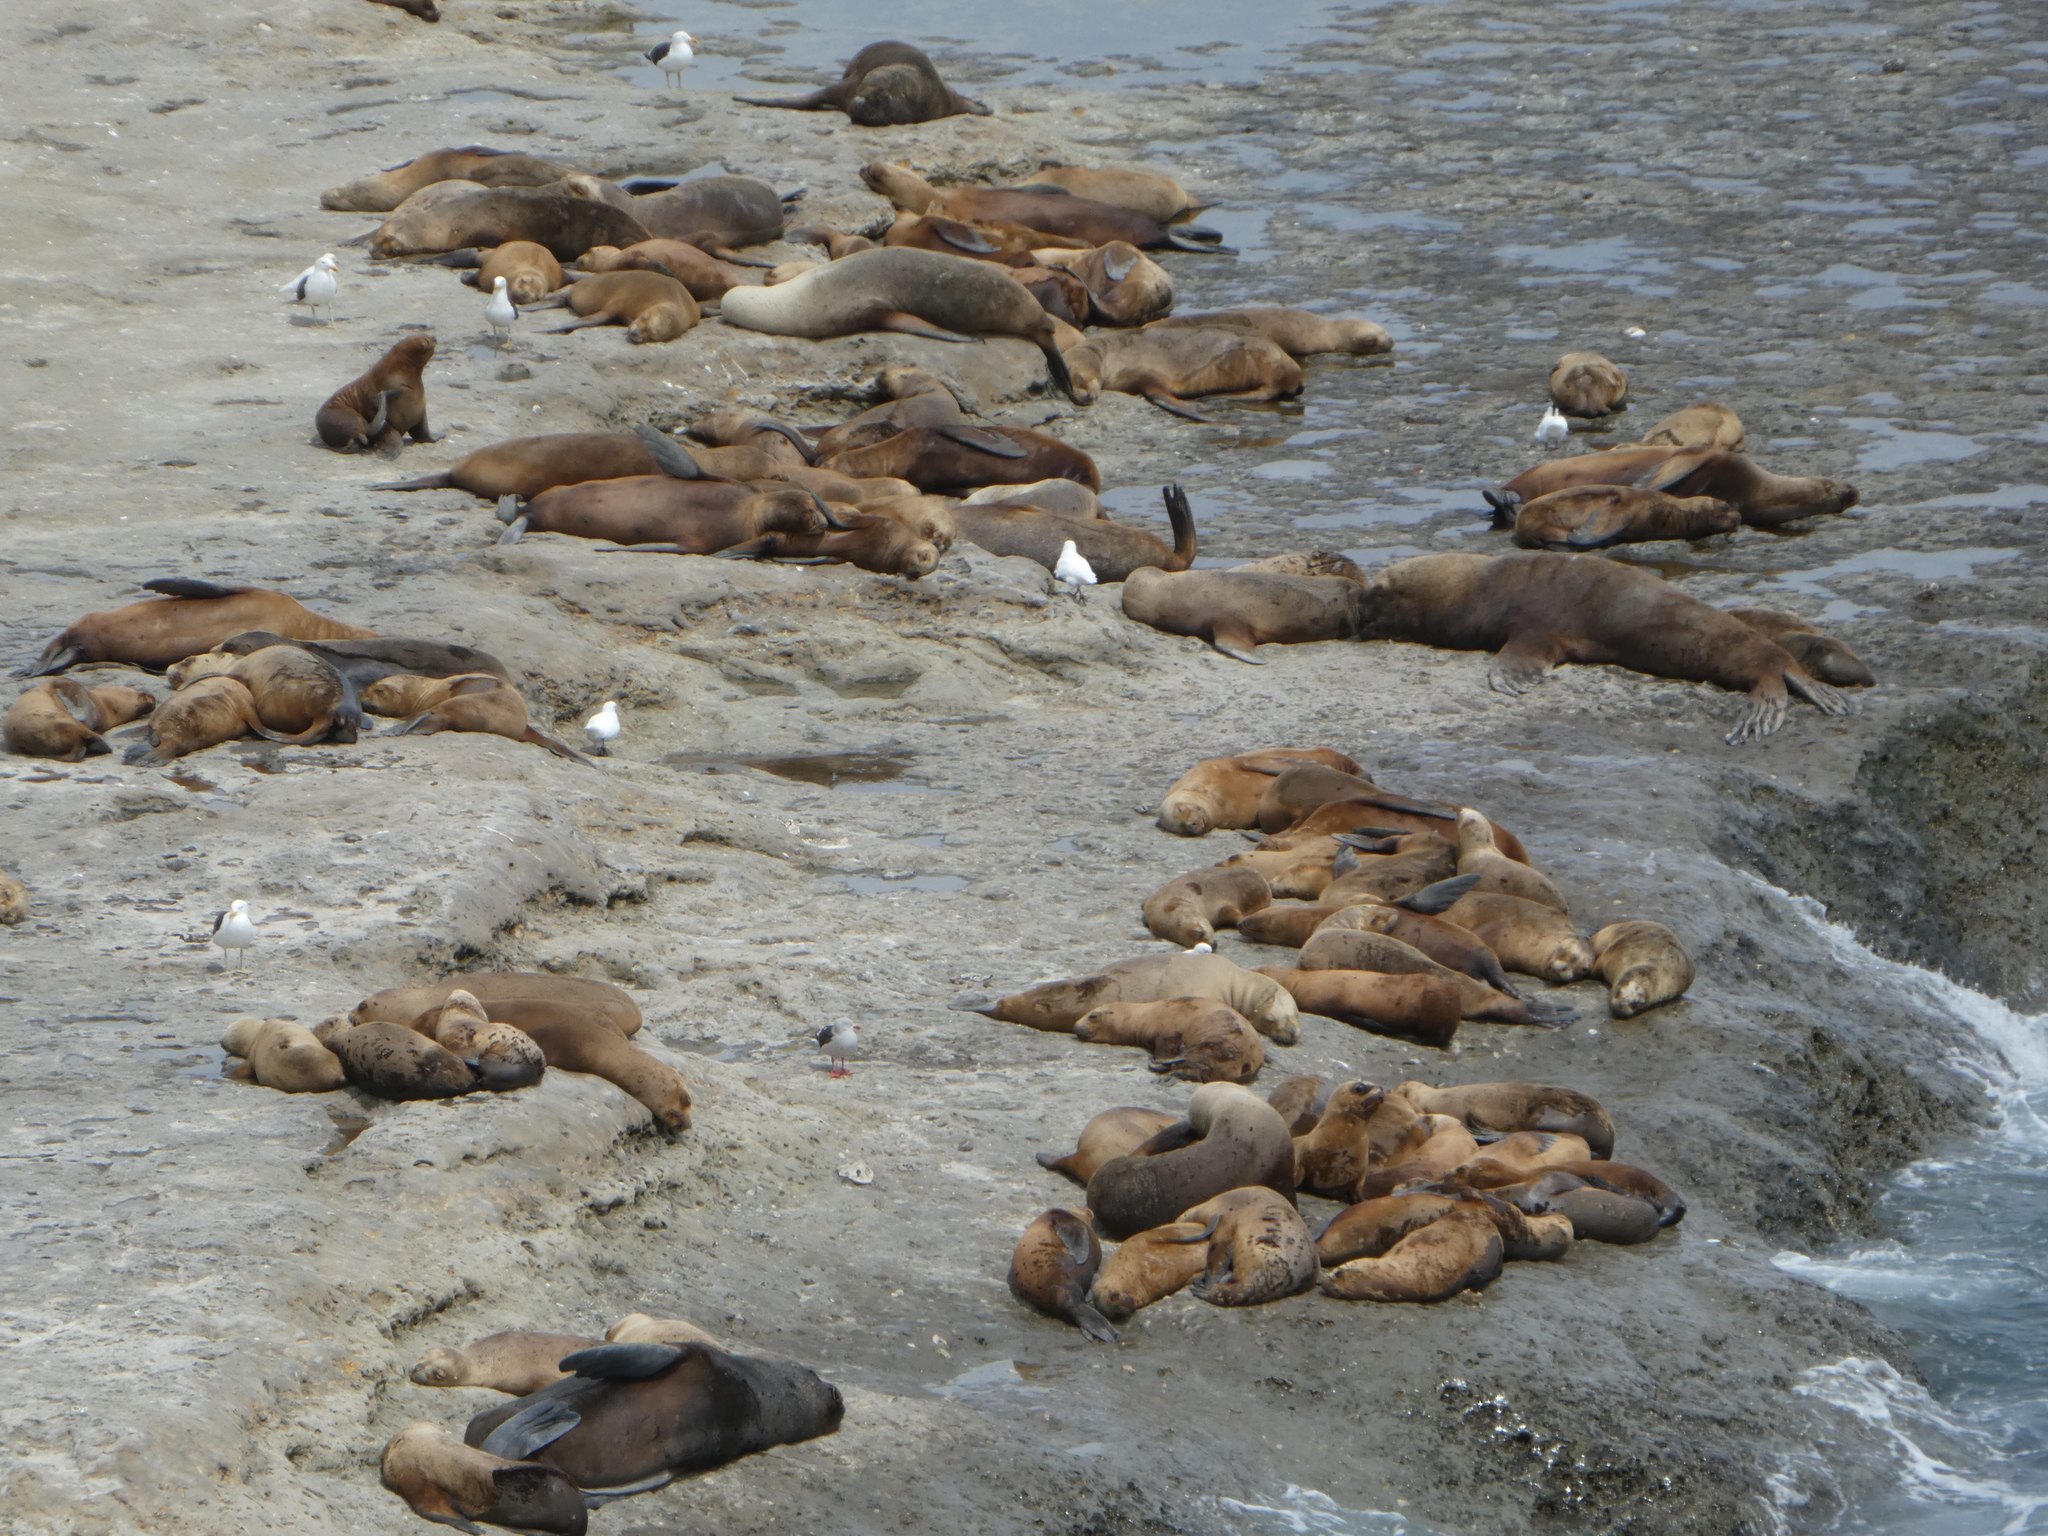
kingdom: Animalia
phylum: Chordata
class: Mammalia
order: Carnivora
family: Otariidae
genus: Otaria
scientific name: Otaria byronia
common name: South american sea lion
